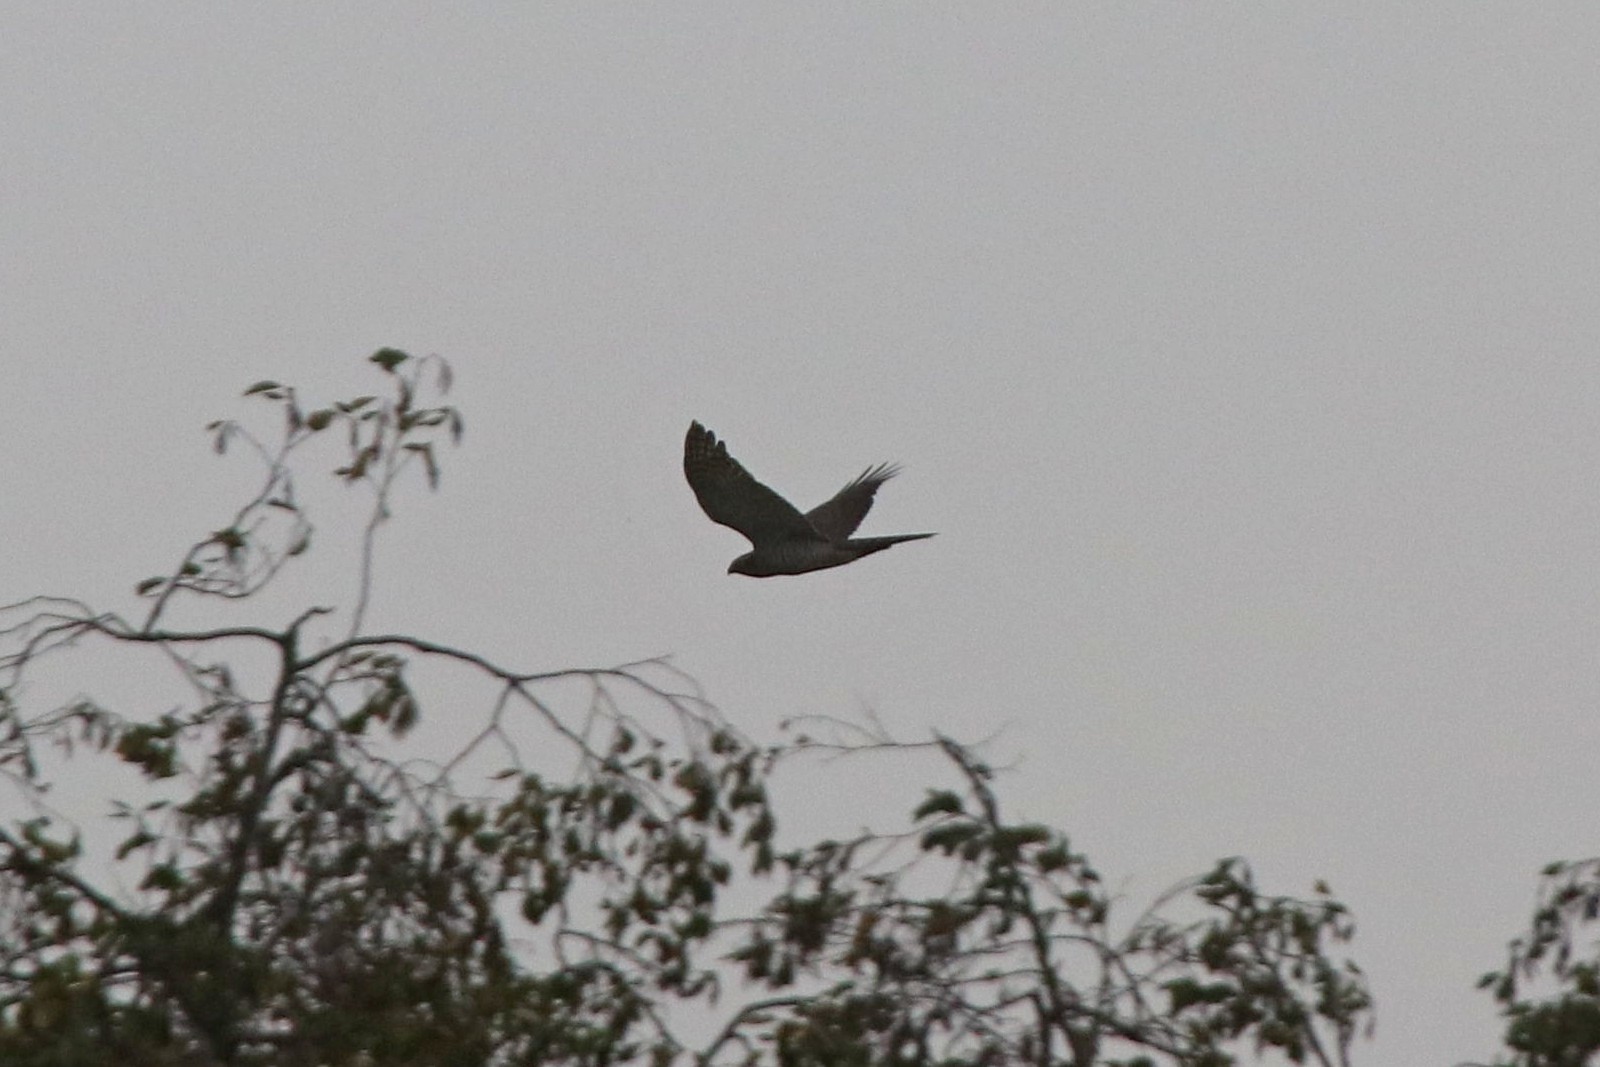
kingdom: Animalia
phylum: Chordata
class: Aves
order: Accipitriformes
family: Accipitridae
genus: Accipiter
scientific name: Accipiter gentilis
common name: Northern goshawk
